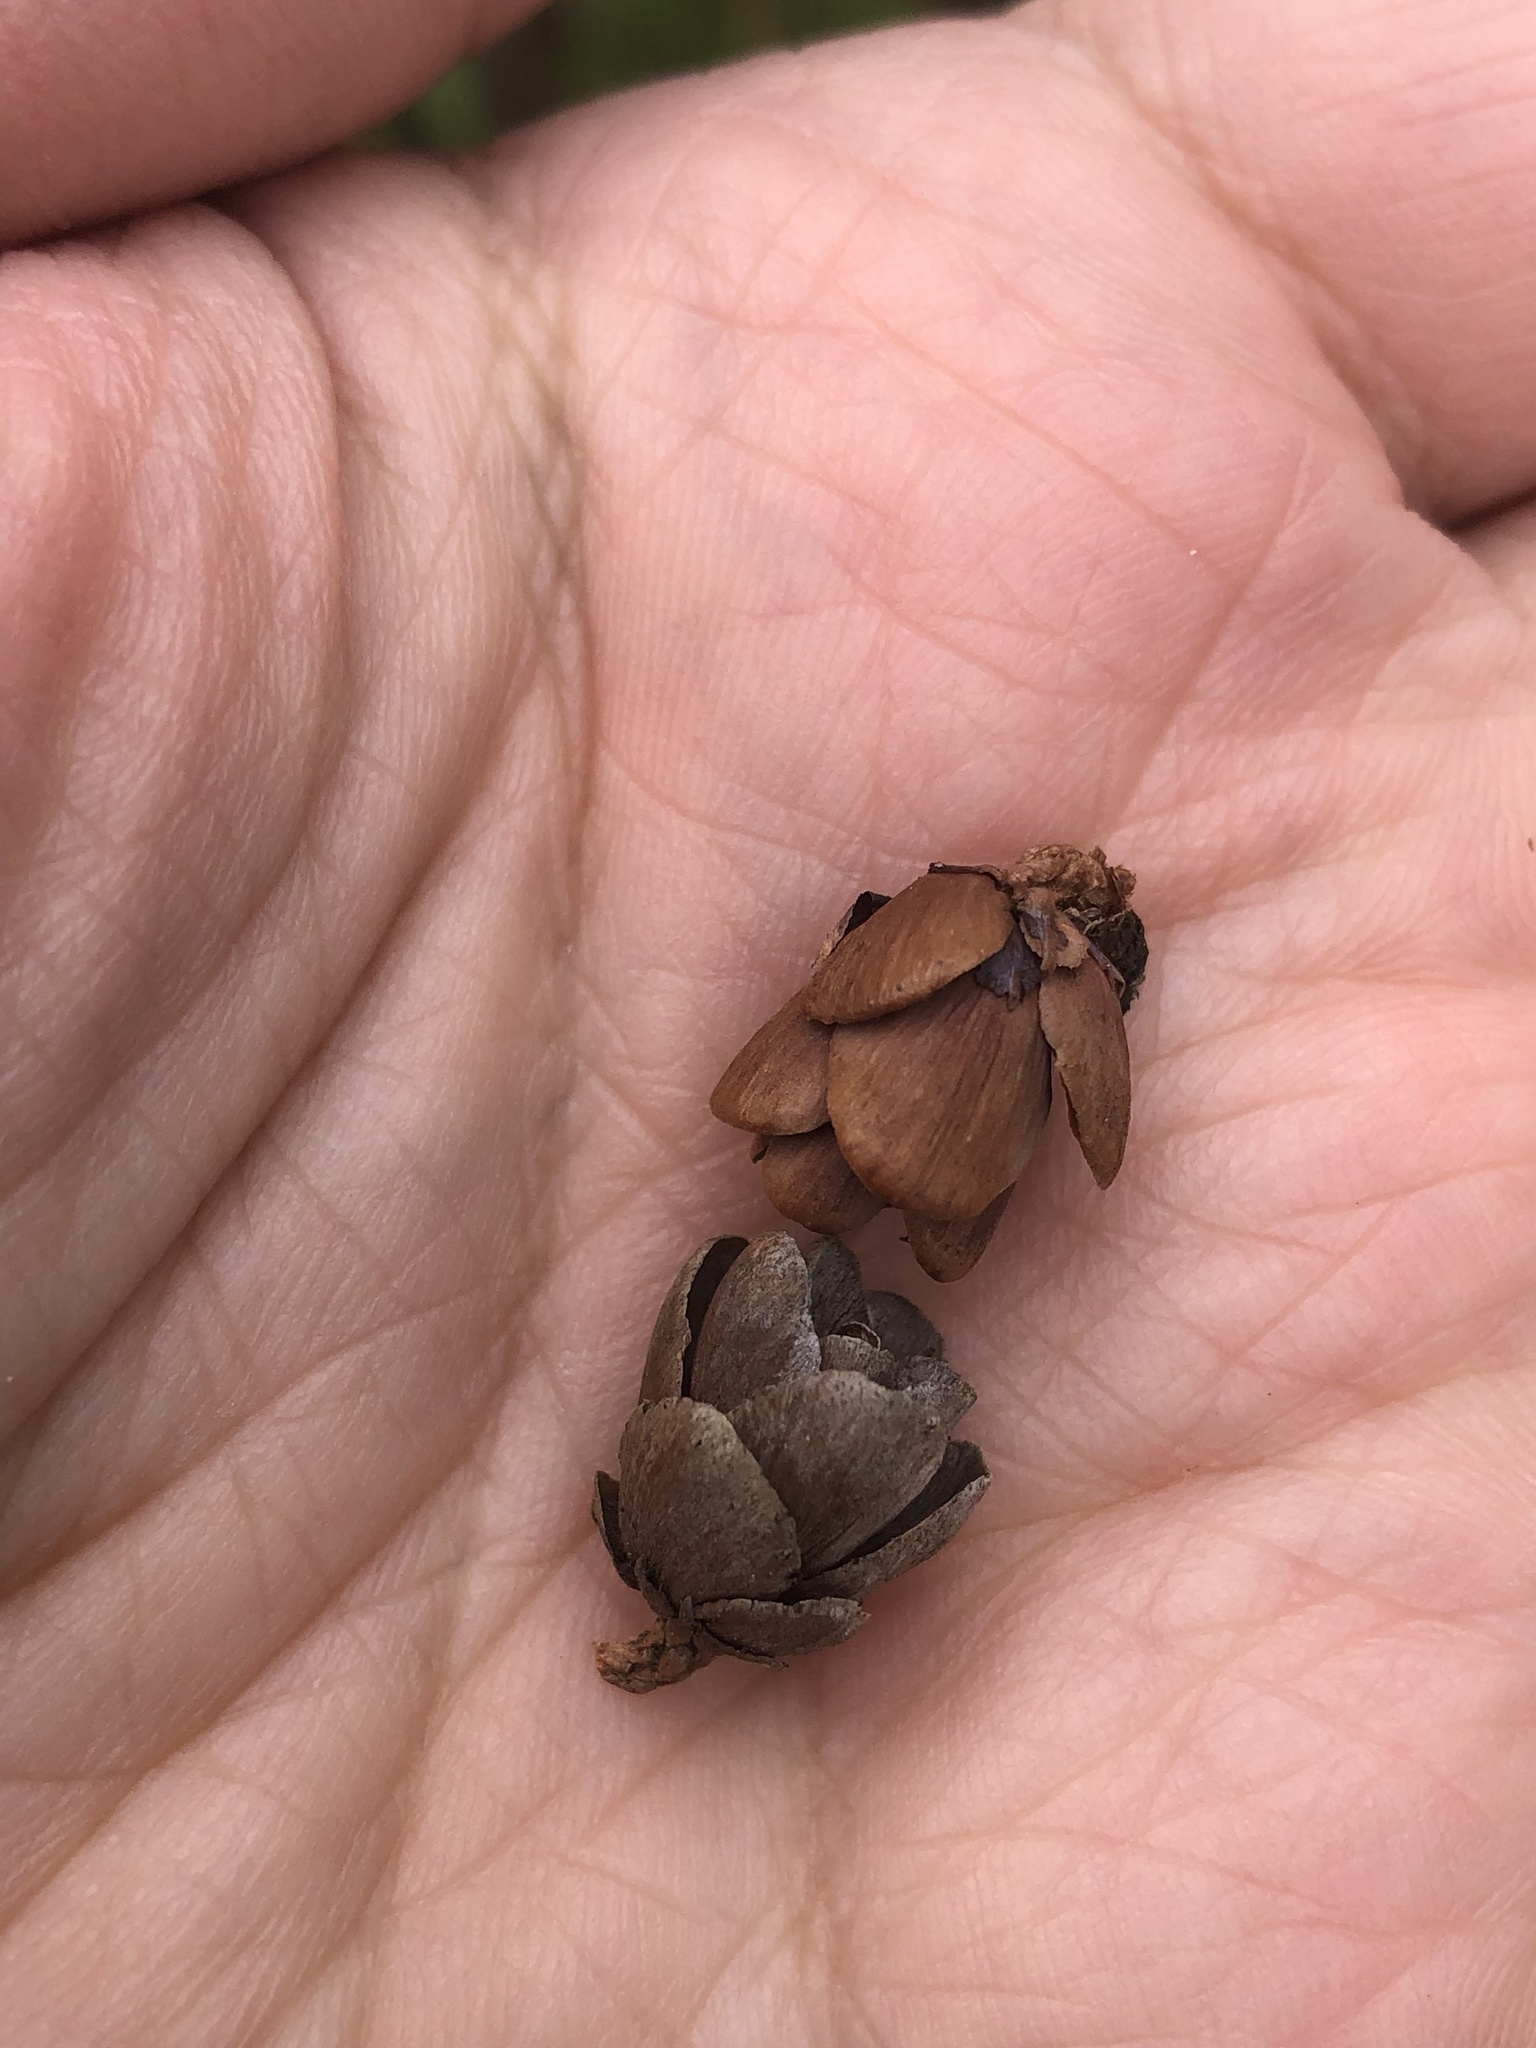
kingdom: Plantae
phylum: Tracheophyta
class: Pinopsida
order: Pinales
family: Pinaceae
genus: Larix
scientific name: Larix laricina
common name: American larch
